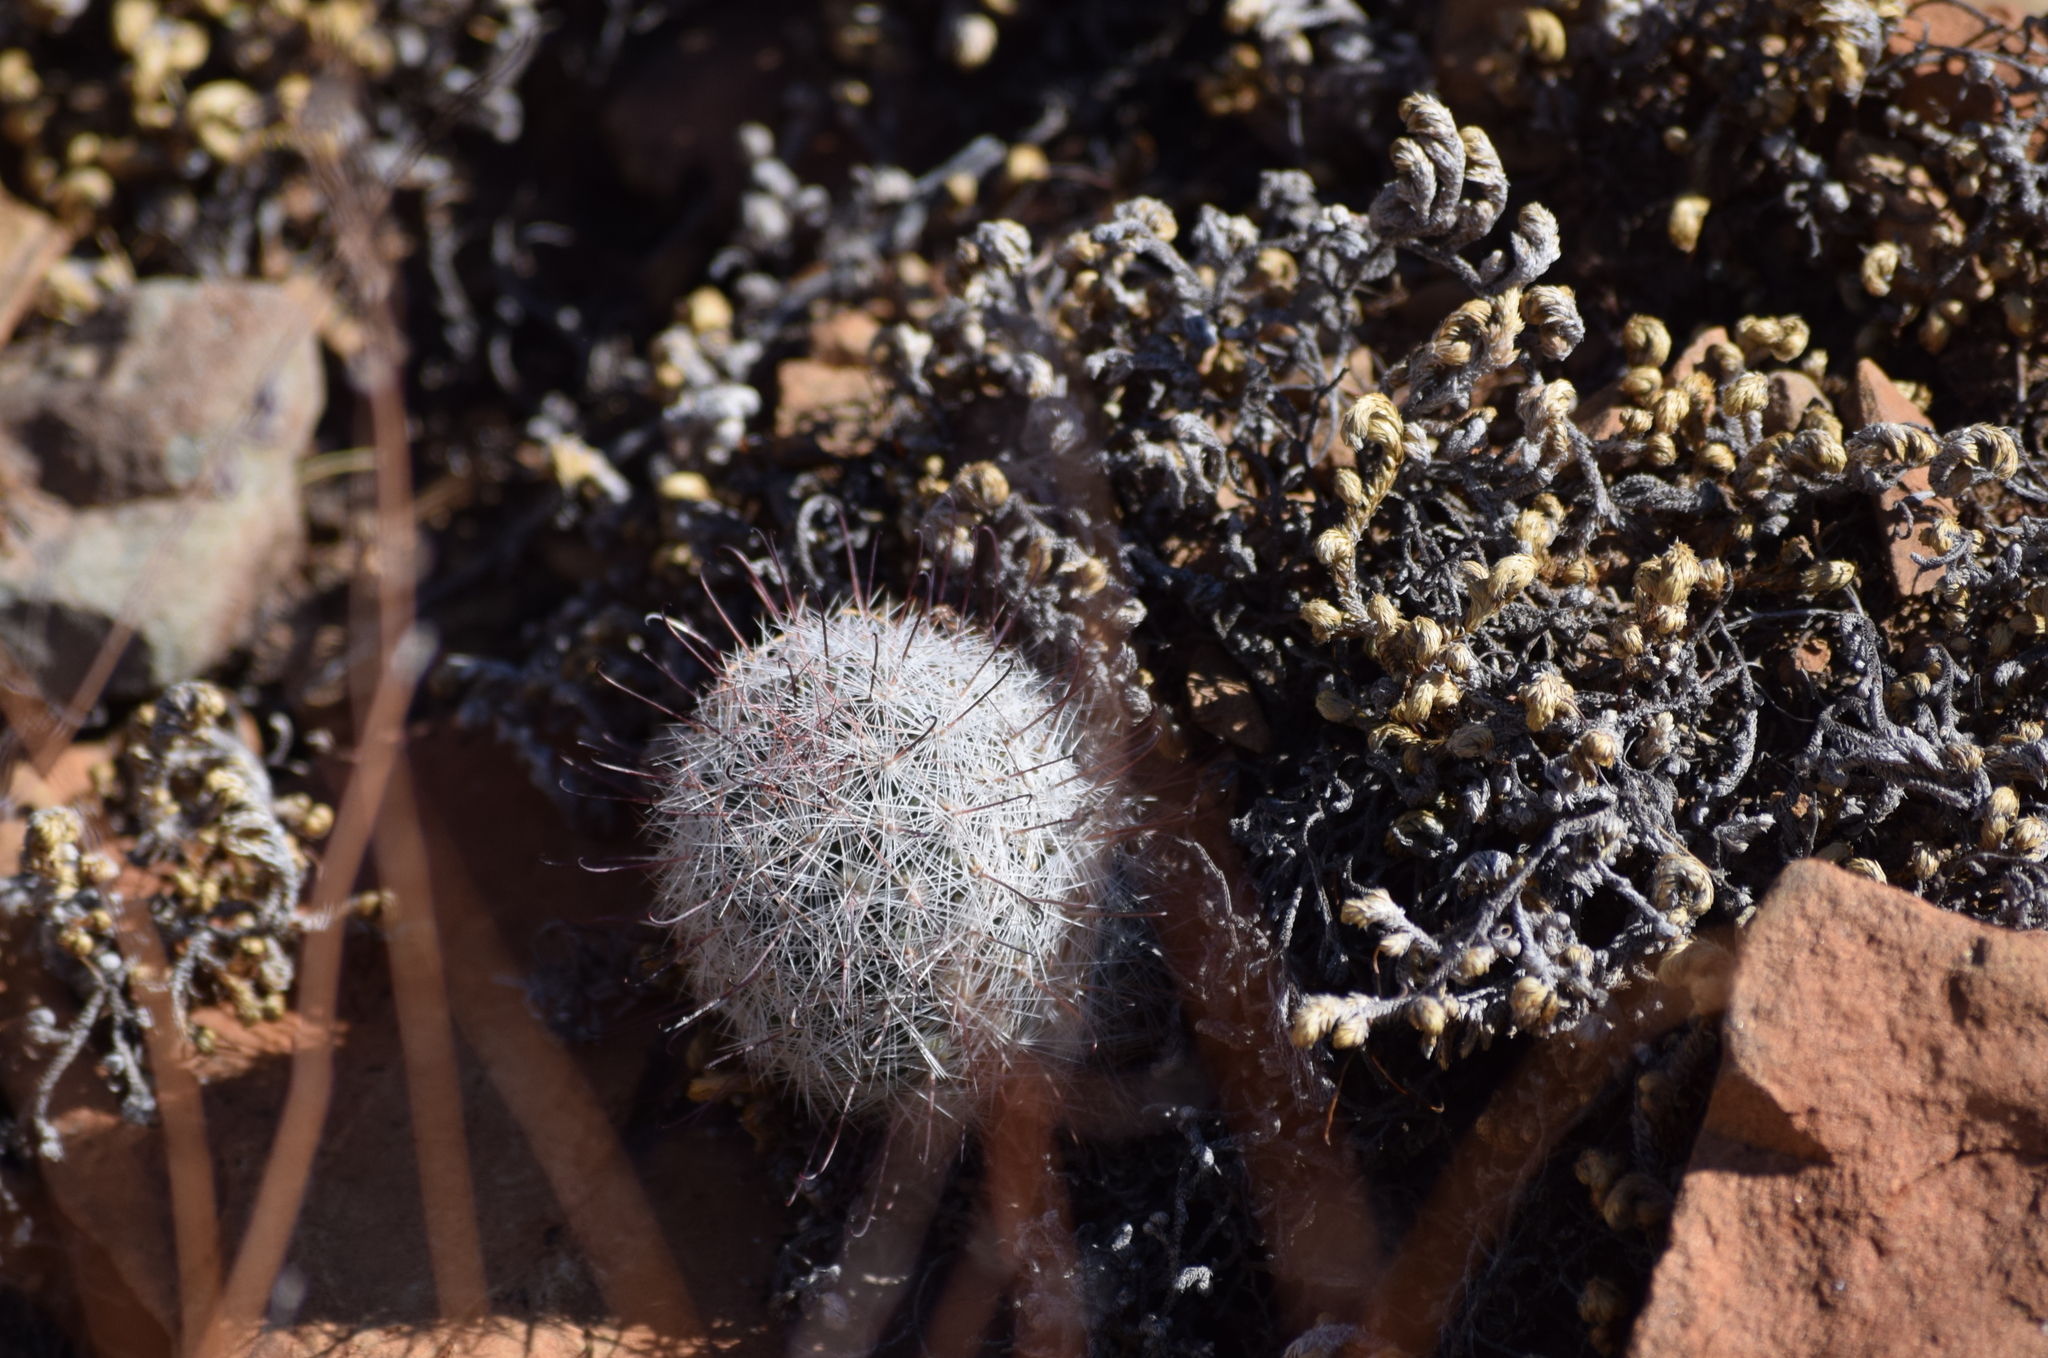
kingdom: Plantae
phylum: Tracheophyta
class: Magnoliopsida
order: Caryophyllales
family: Cactaceae
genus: Cochemiea
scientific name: Cochemiea grahamii
